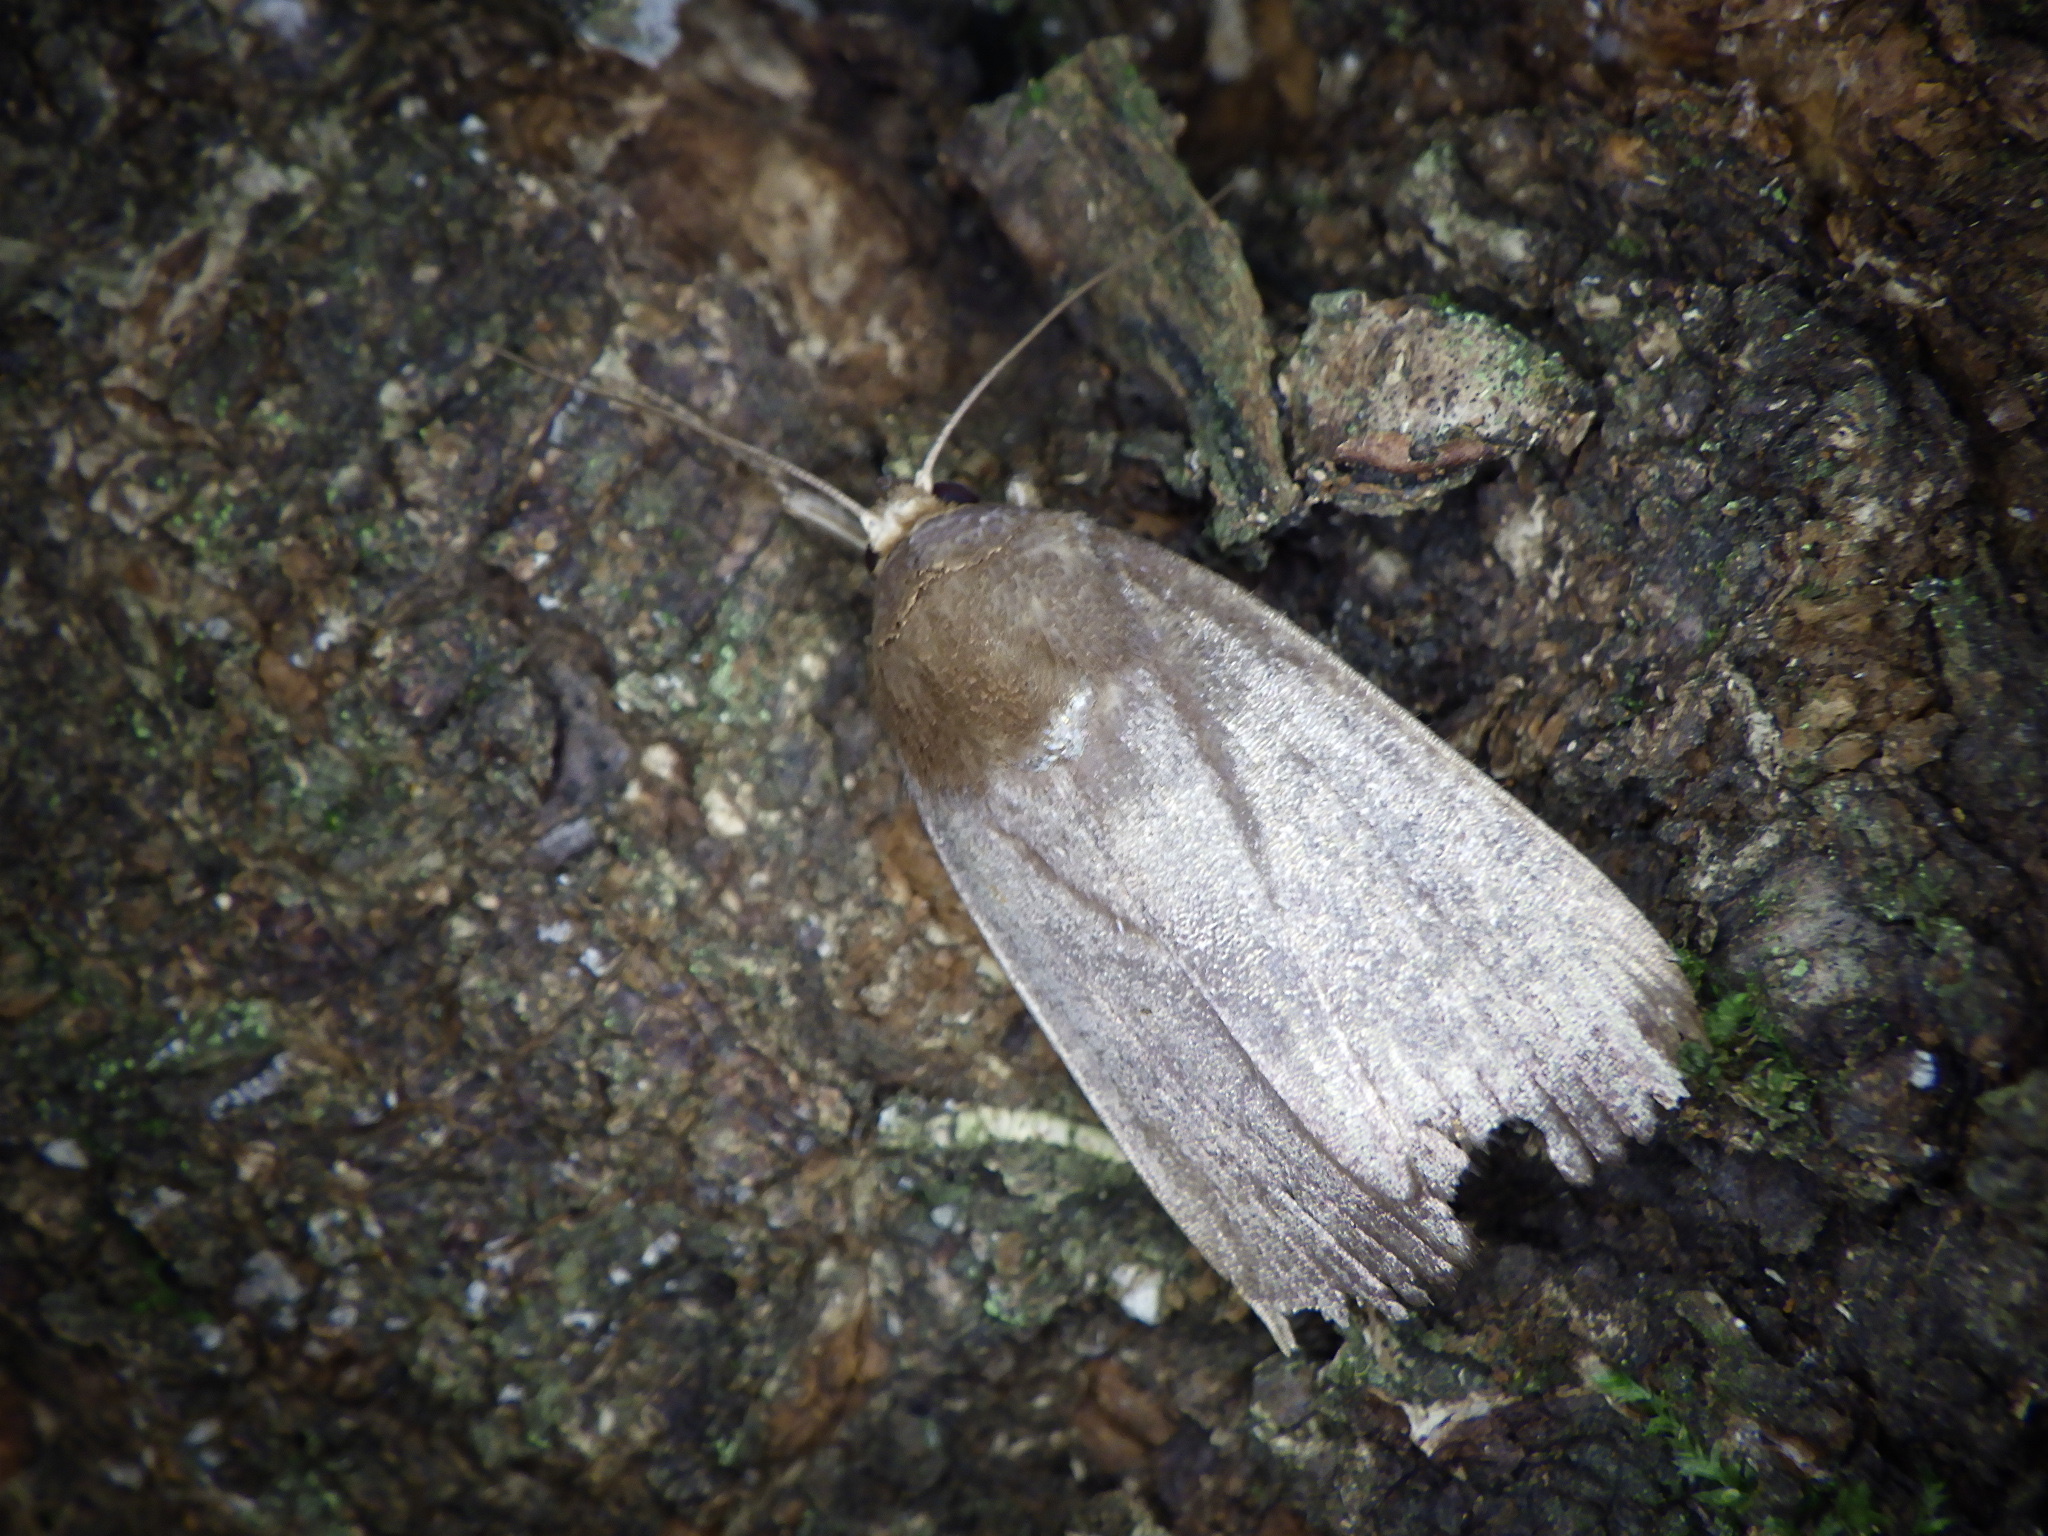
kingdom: Animalia
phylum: Arthropoda
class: Insecta
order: Lepidoptera
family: Noctuidae
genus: Amphipyra
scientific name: Amphipyra livida
